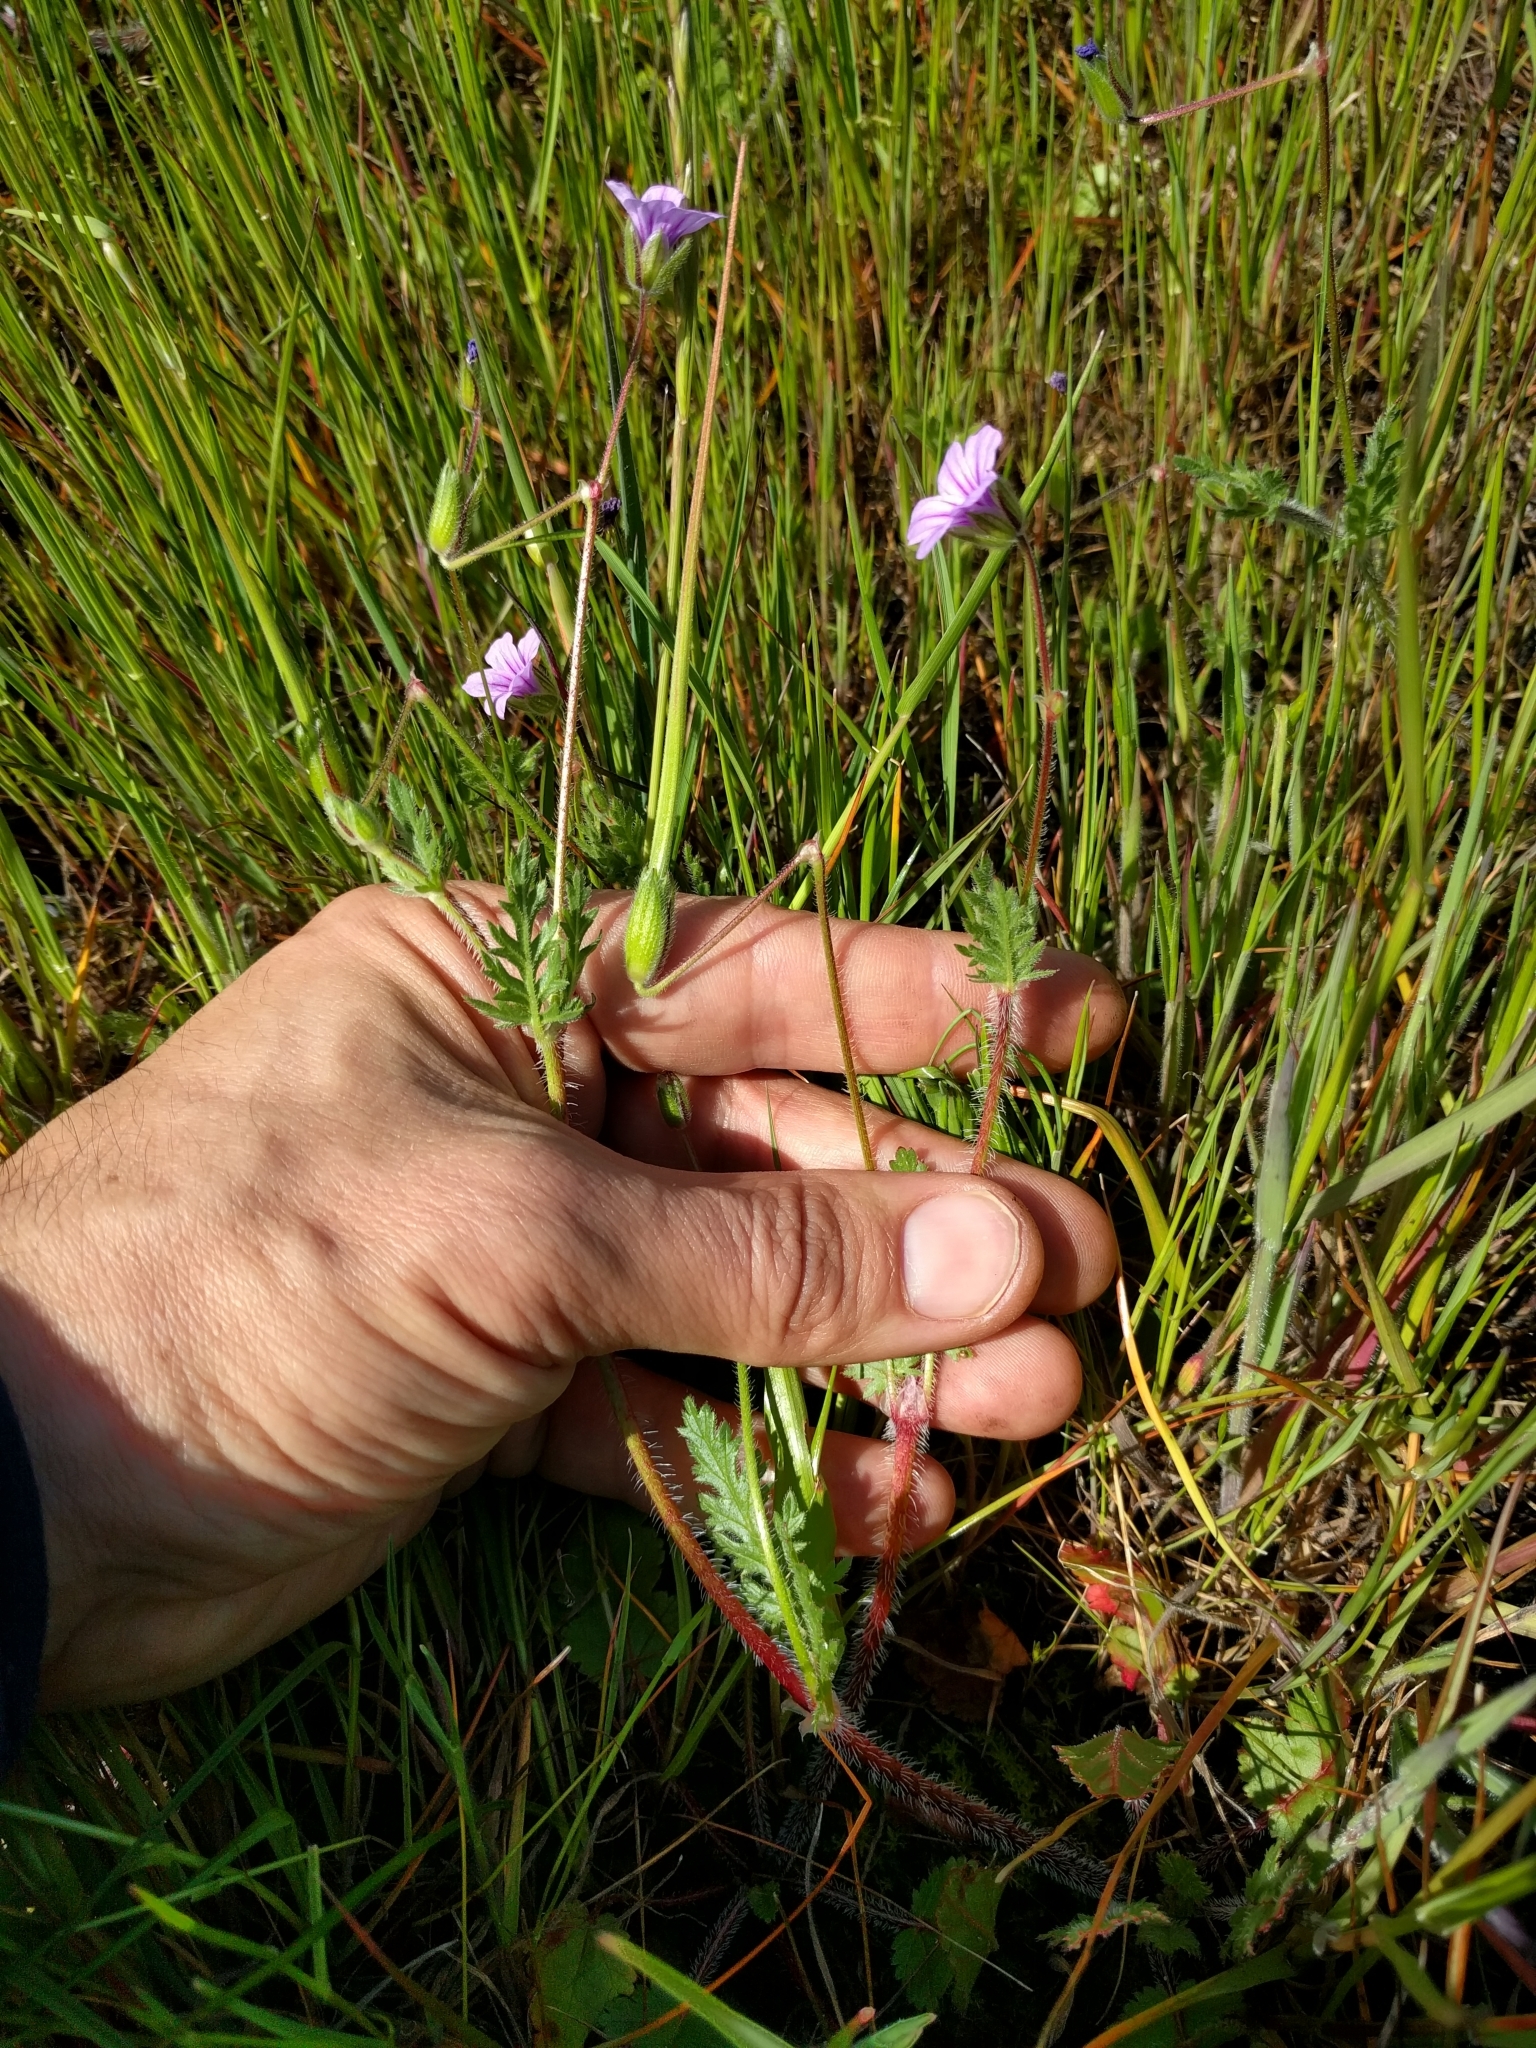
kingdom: Plantae
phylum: Tracheophyta
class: Magnoliopsida
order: Geraniales
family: Geraniaceae
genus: Erodium
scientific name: Erodium botrys
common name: Mediterranean stork's-bill
